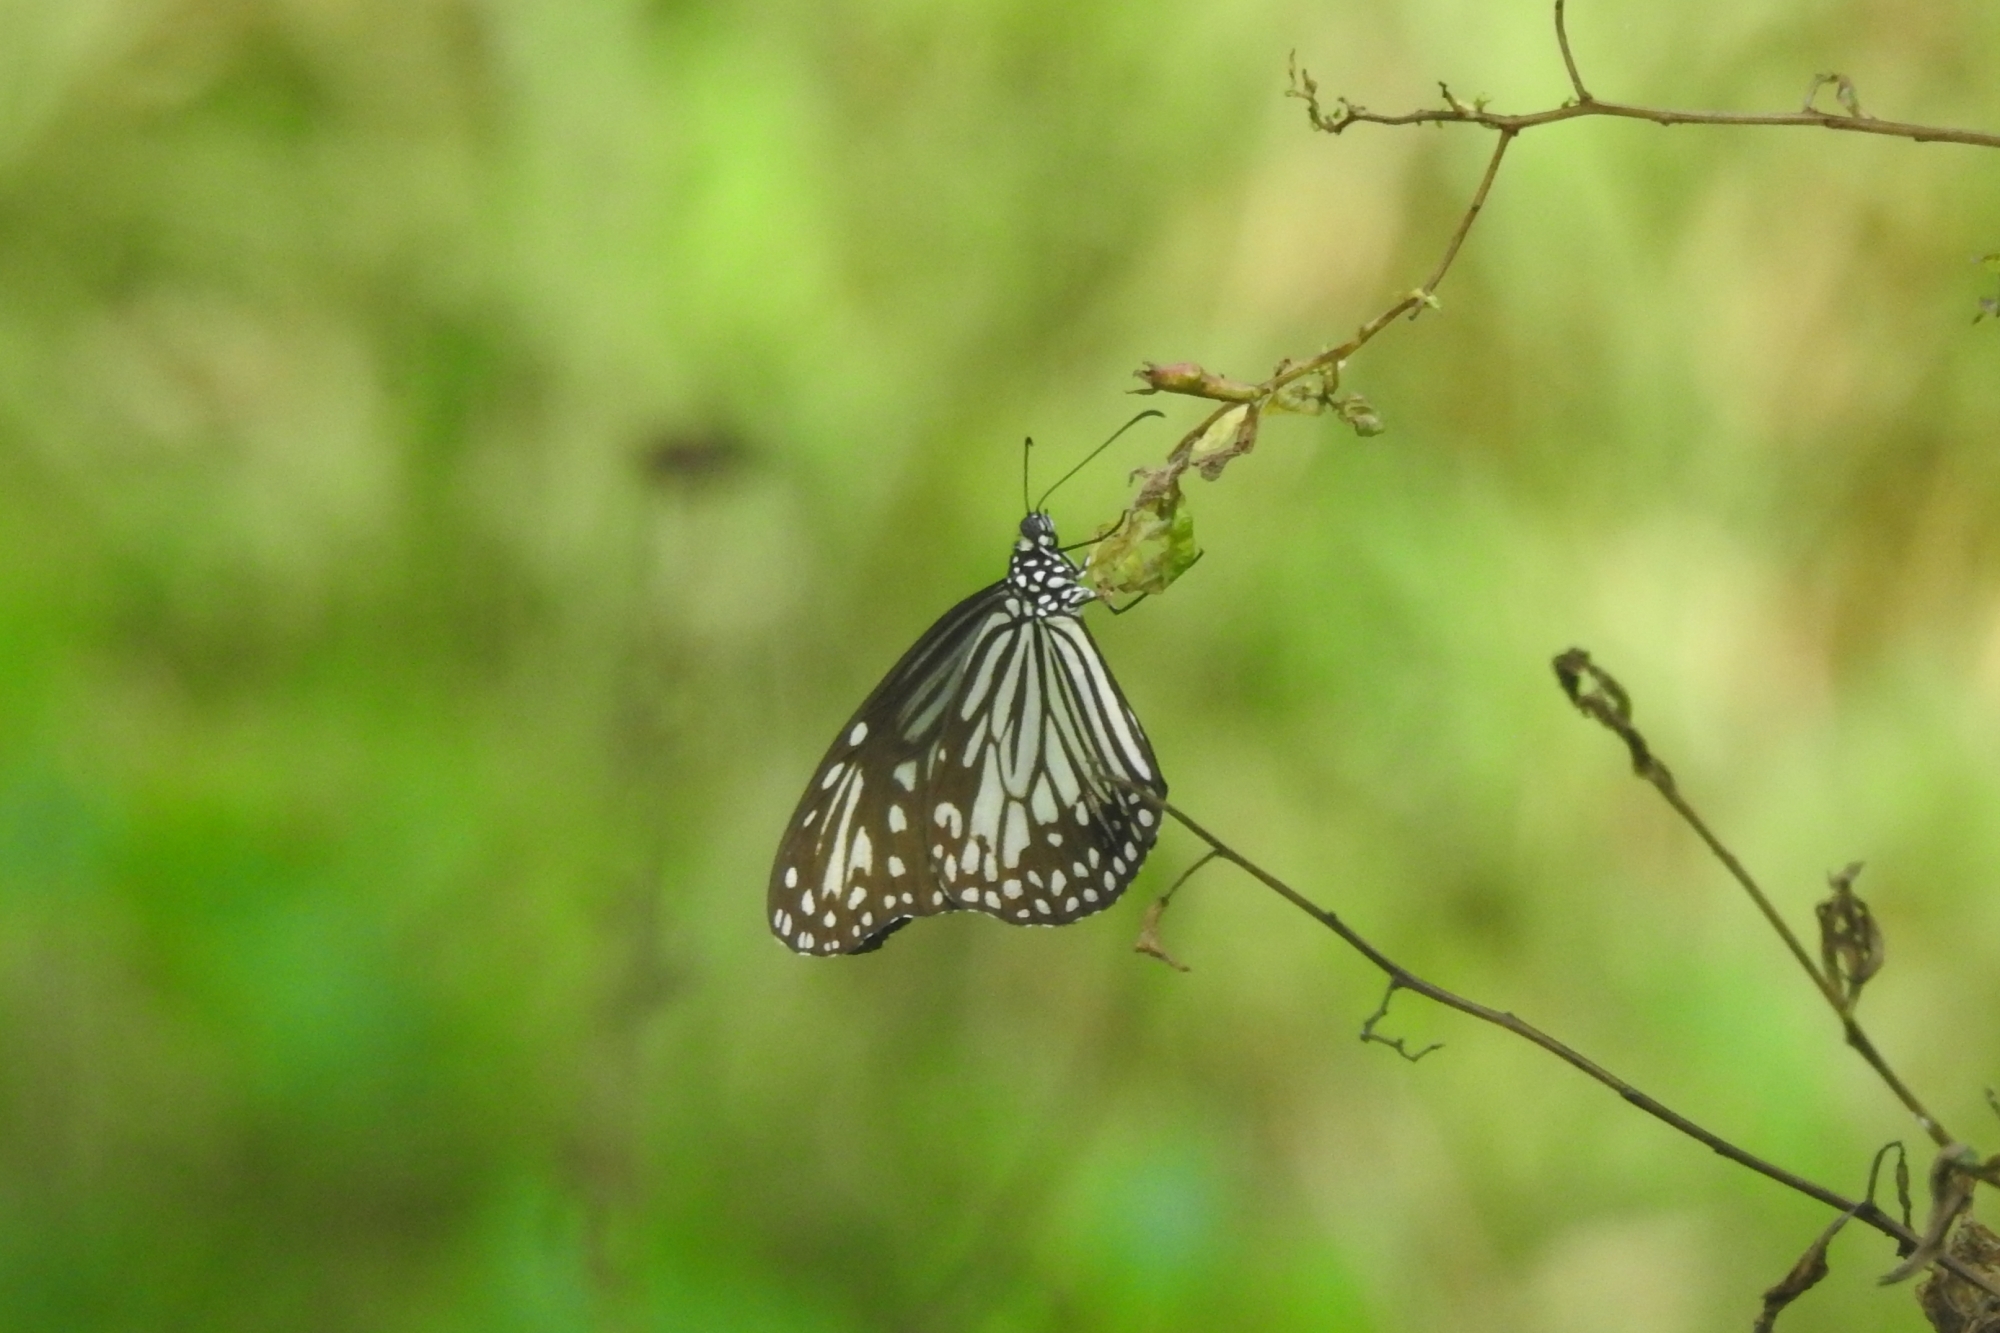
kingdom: Animalia
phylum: Arthropoda
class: Insecta
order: Lepidoptera
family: Nymphalidae
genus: Parantica
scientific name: Parantica aglea
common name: Glassy tiger
